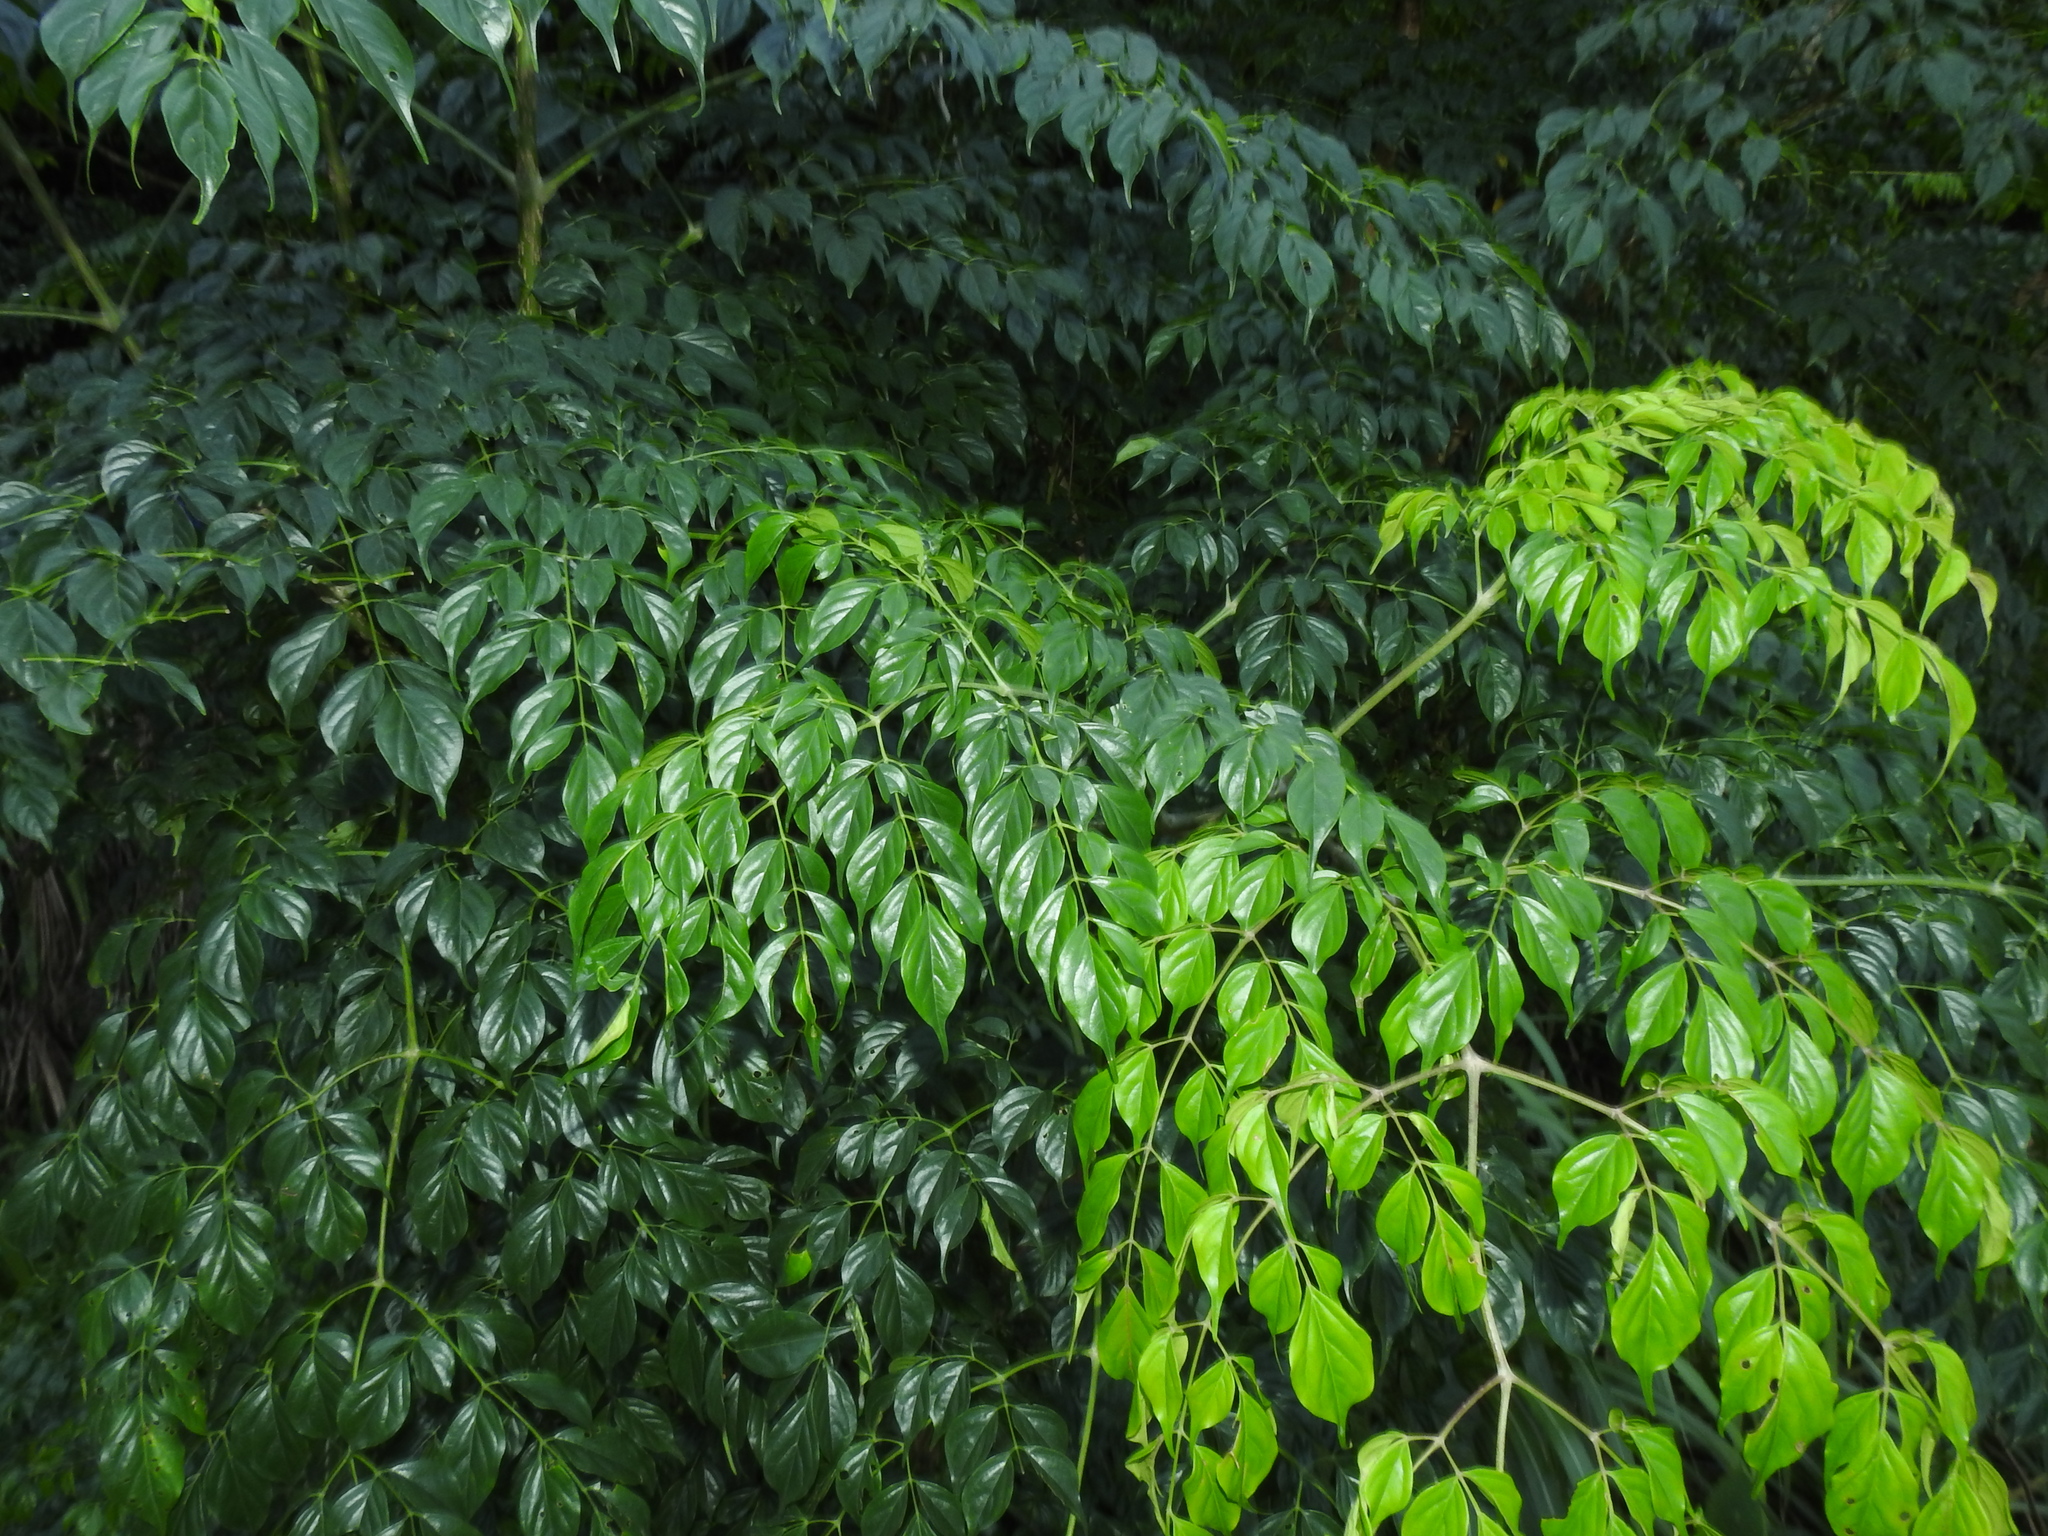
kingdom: Plantae
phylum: Tracheophyta
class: Magnoliopsida
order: Lamiales
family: Bignoniaceae
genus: Radermachera
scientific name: Radermachera sinica
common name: China doll plant
